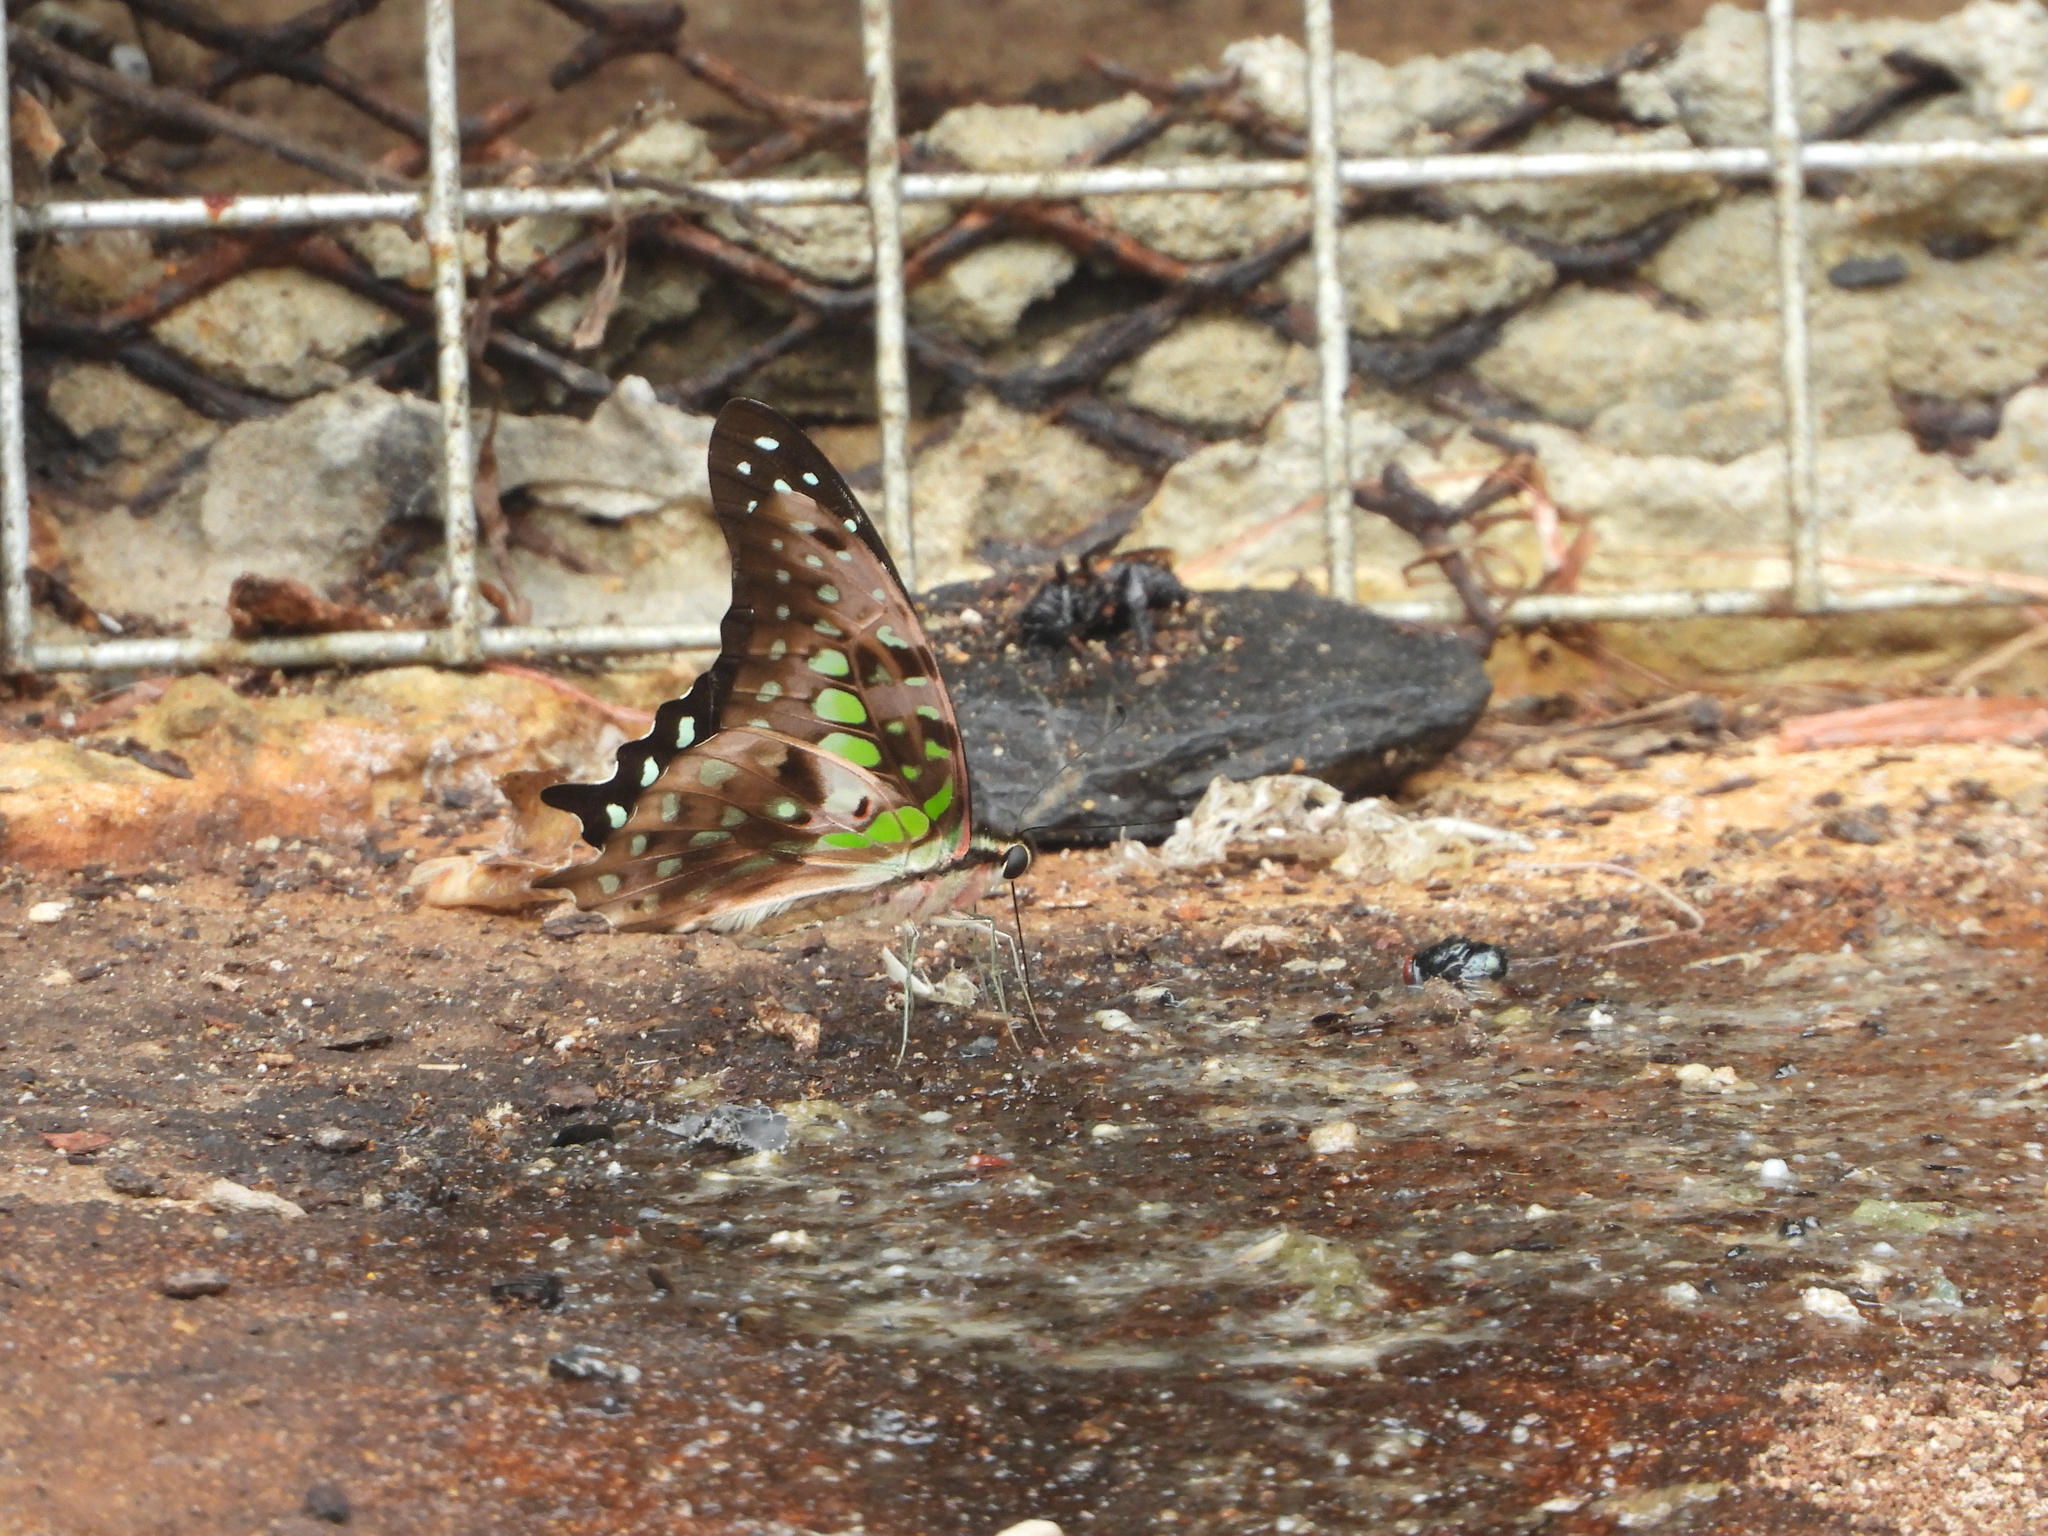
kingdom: Animalia
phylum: Arthropoda
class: Insecta
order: Lepidoptera
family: Papilionidae
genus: Graphium
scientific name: Graphium agamemnon
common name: Tailed jay
